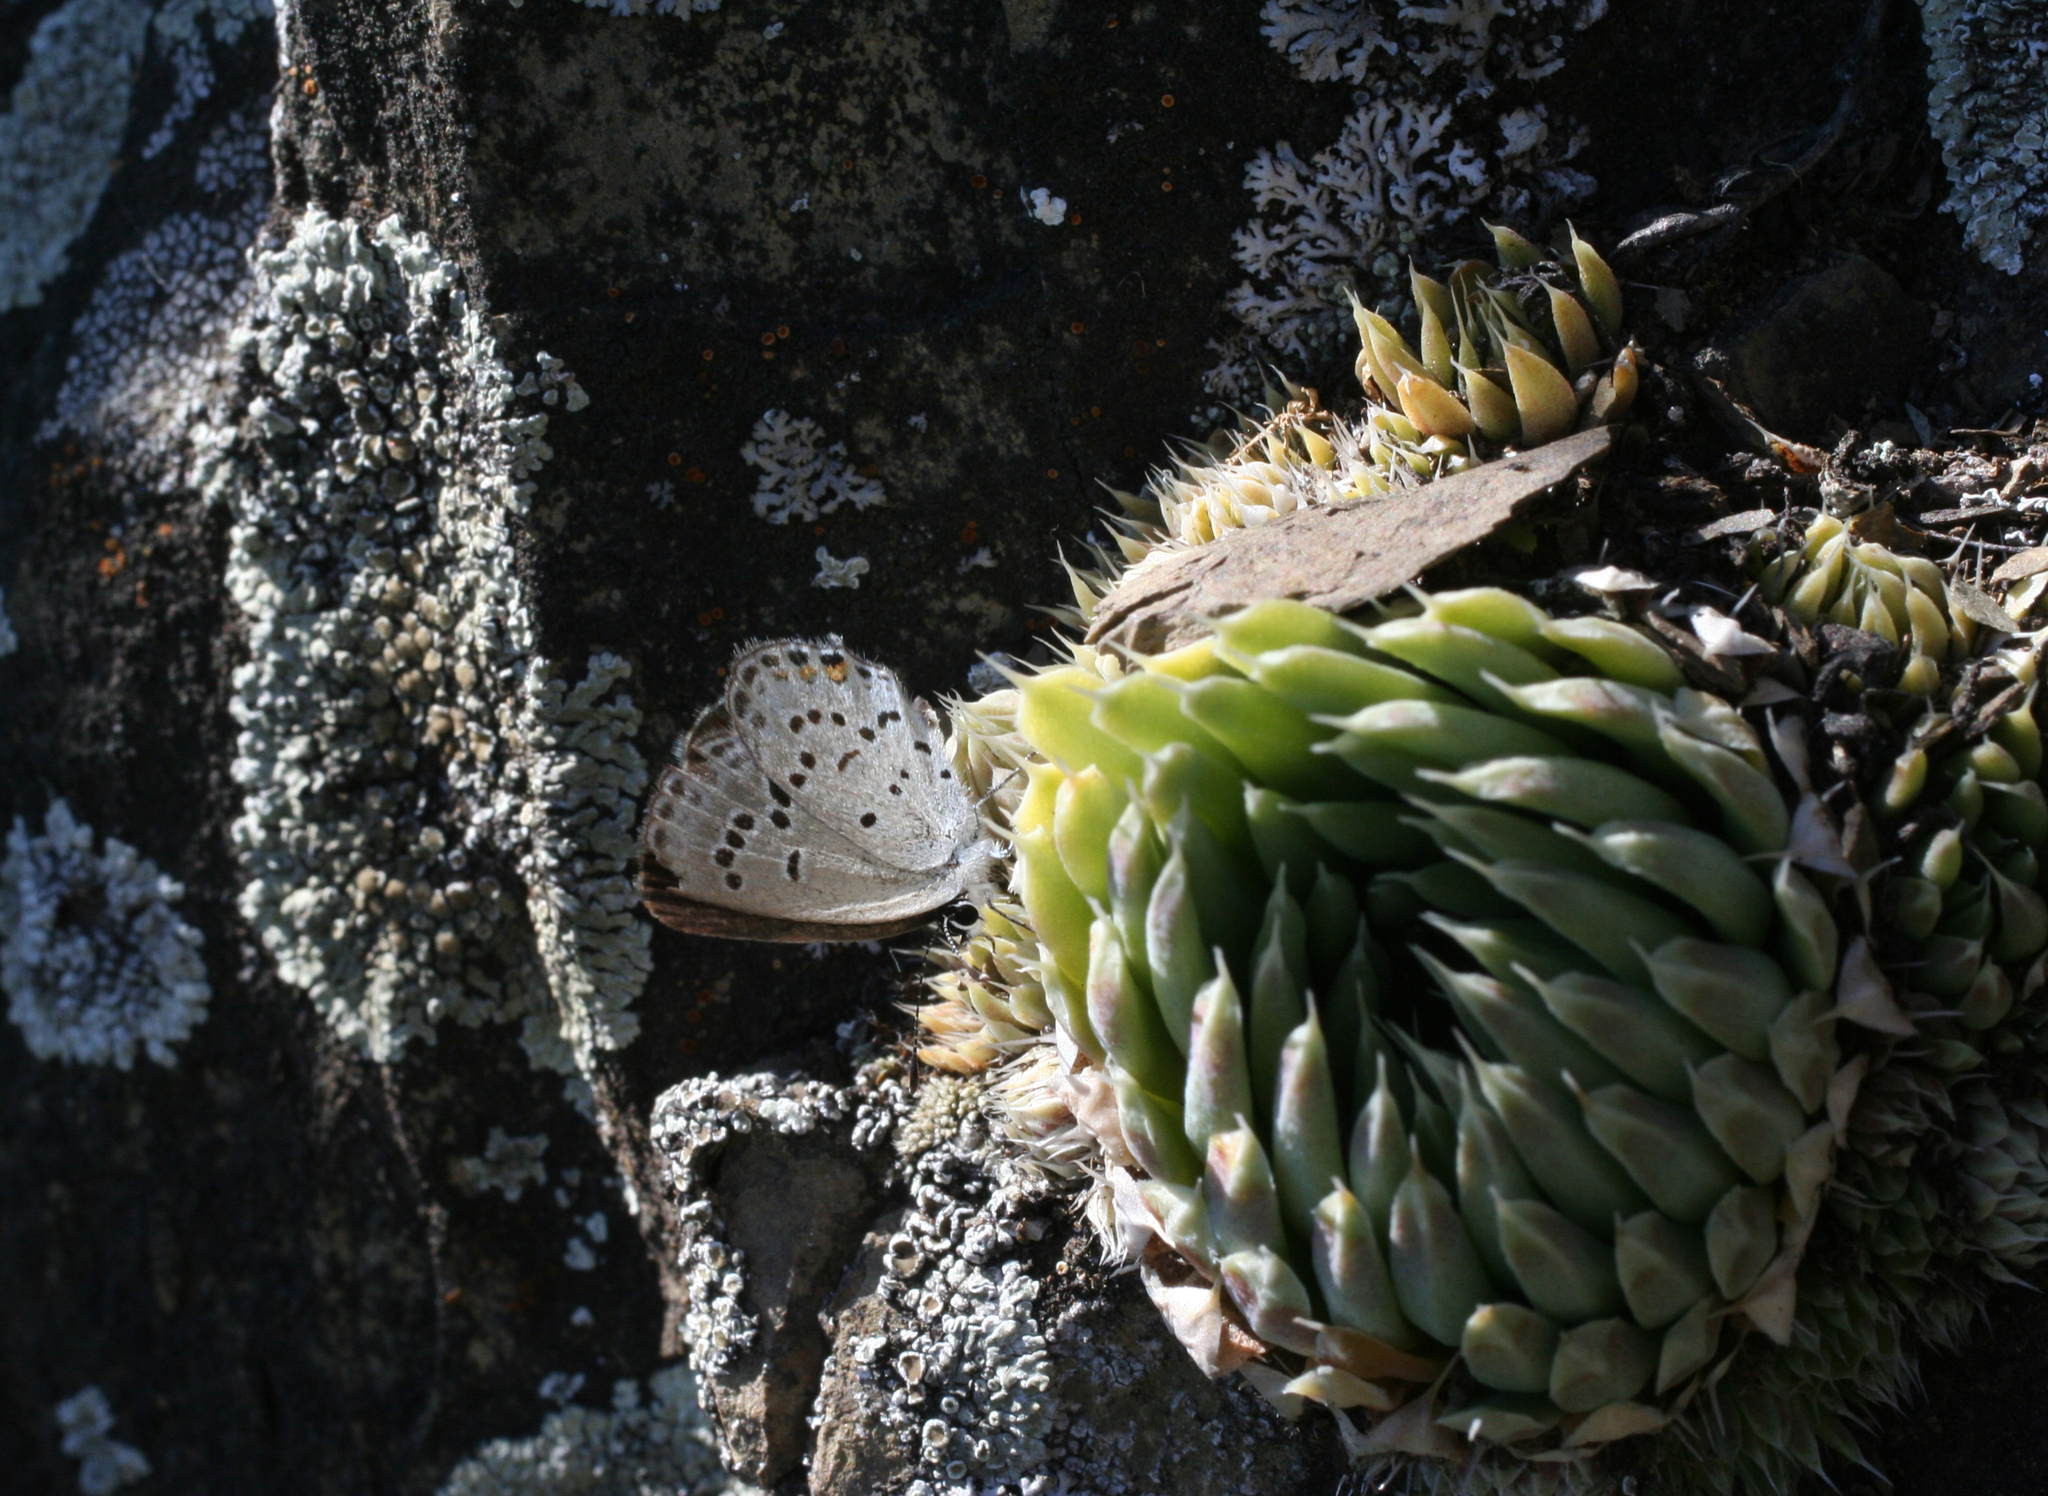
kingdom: Animalia
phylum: Arthropoda
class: Insecta
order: Lepidoptera
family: Lycaenidae
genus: Tongeia
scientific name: Tongeia fischeri
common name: Fischer's blue
